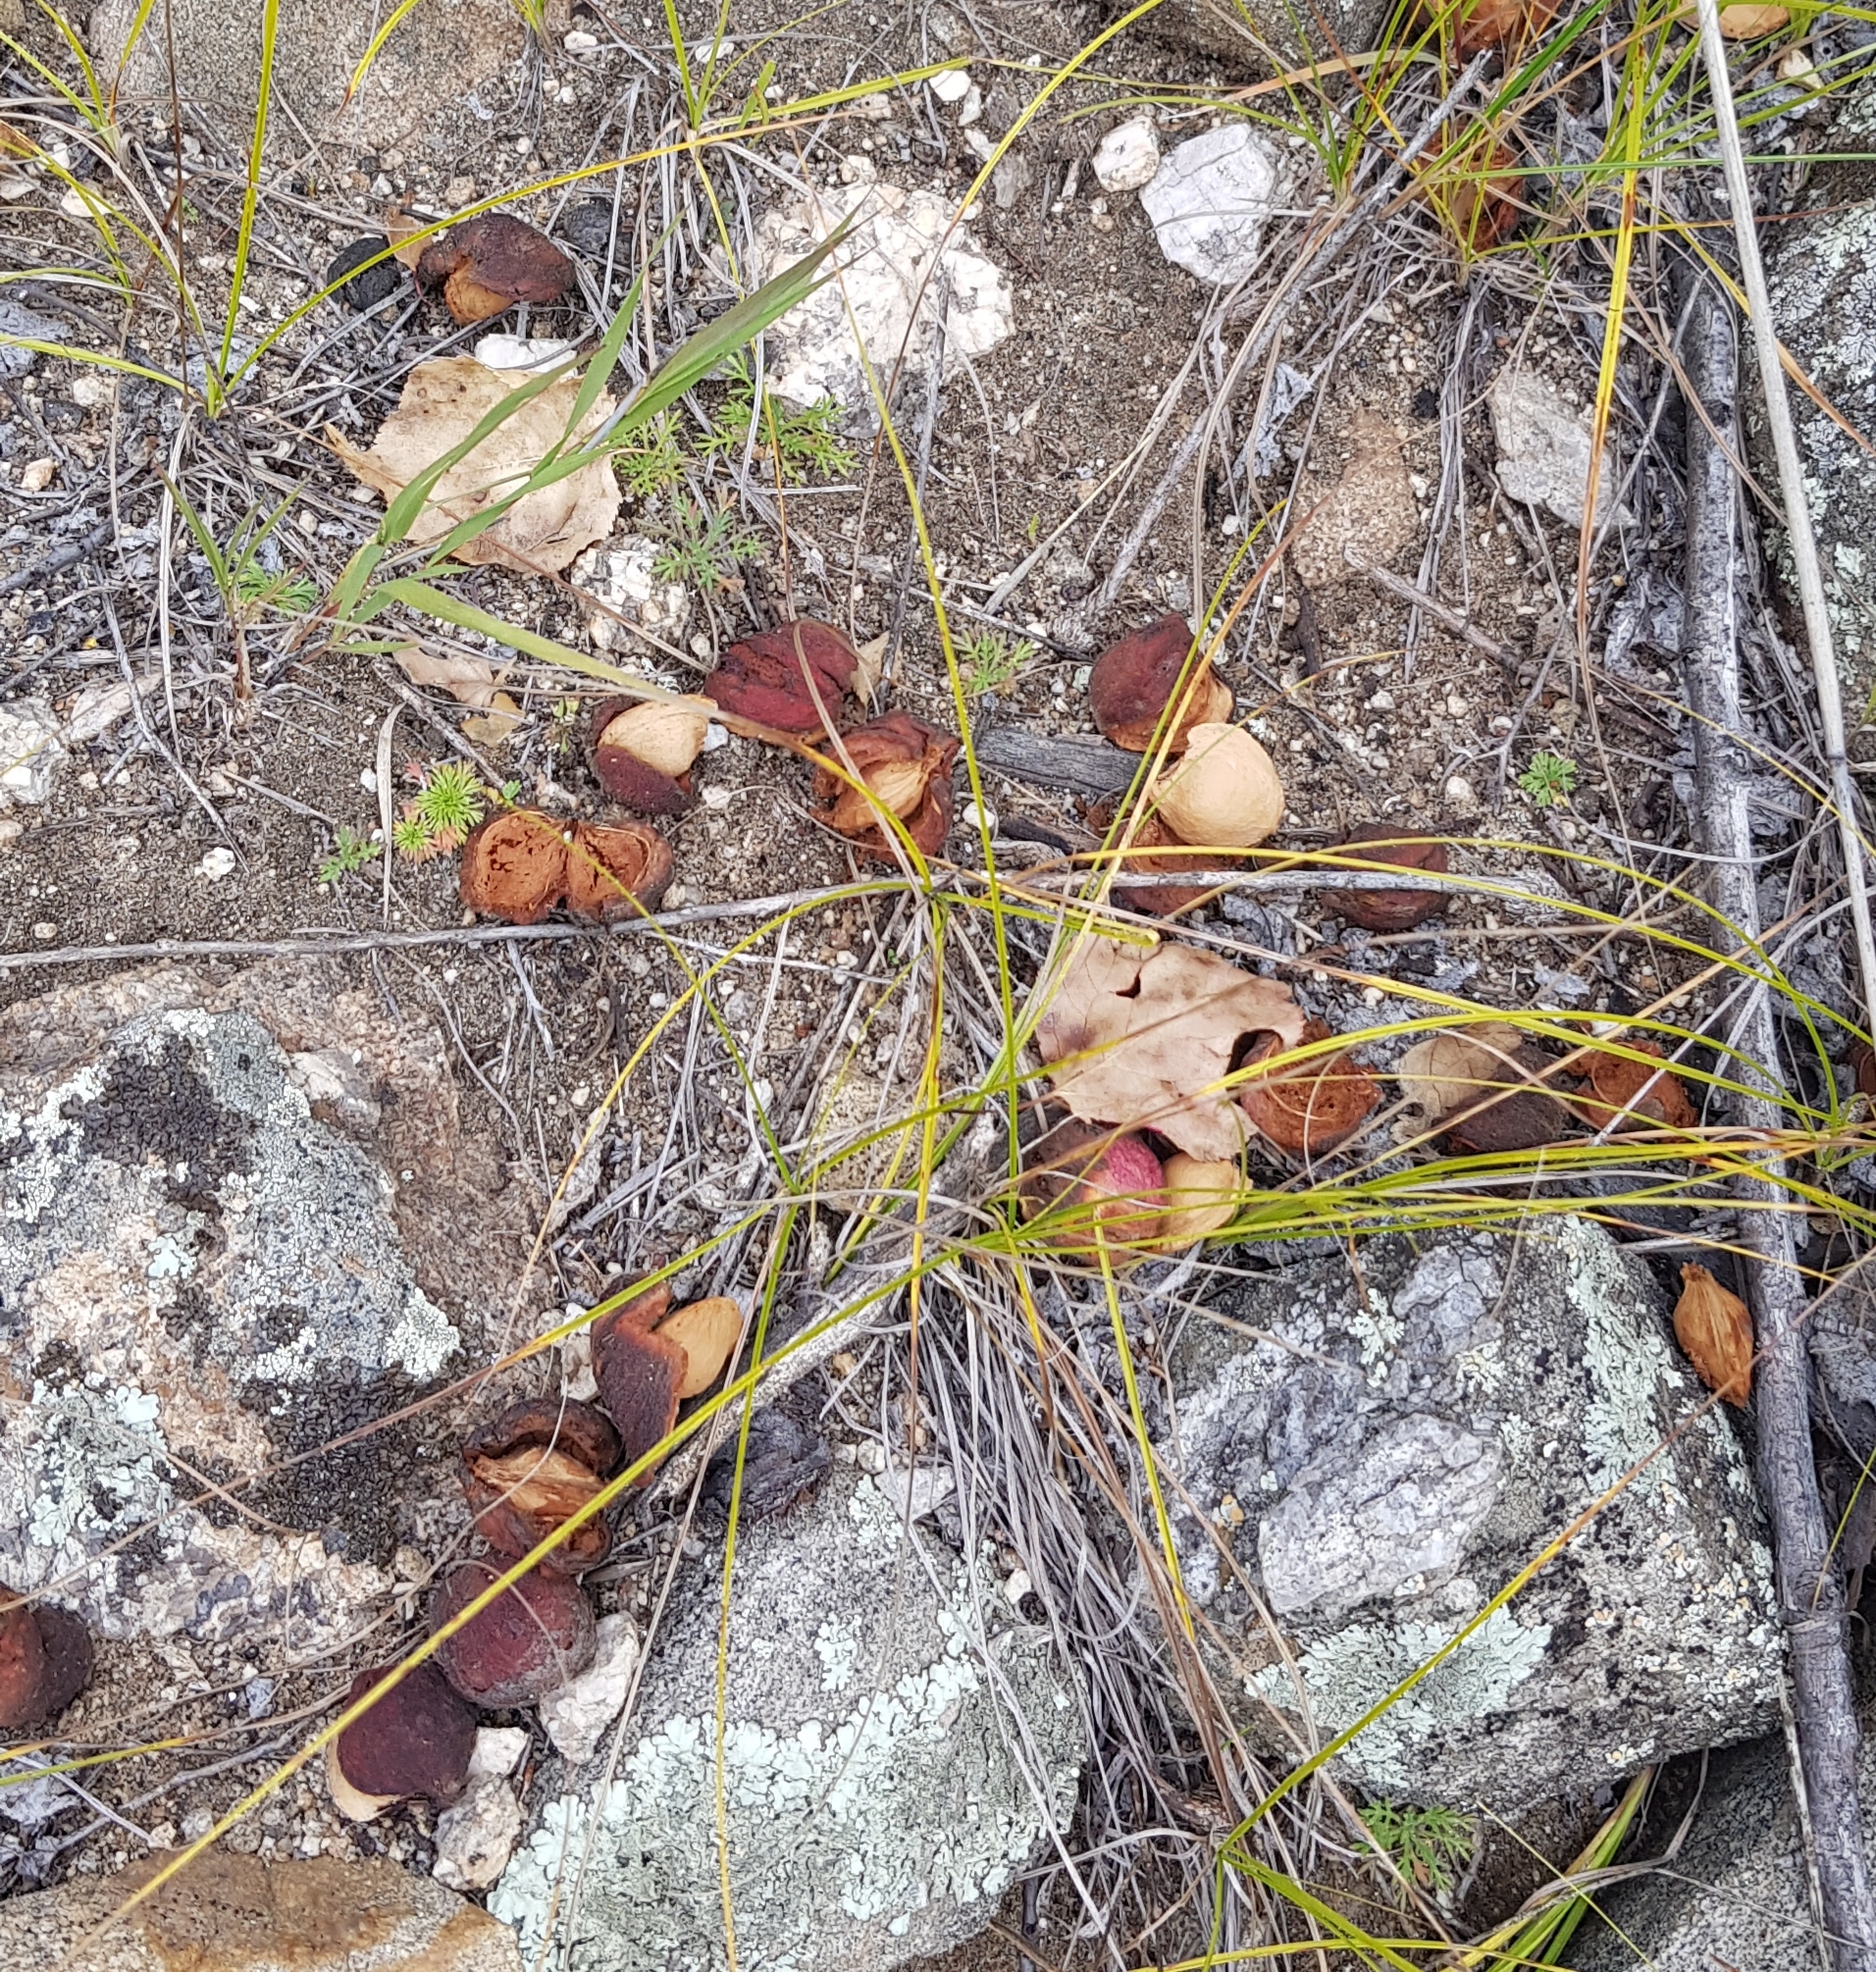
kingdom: Plantae
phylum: Tracheophyta
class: Magnoliopsida
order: Rosales
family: Rosaceae
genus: Prunus
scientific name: Prunus sibirica
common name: Siberian apricot
